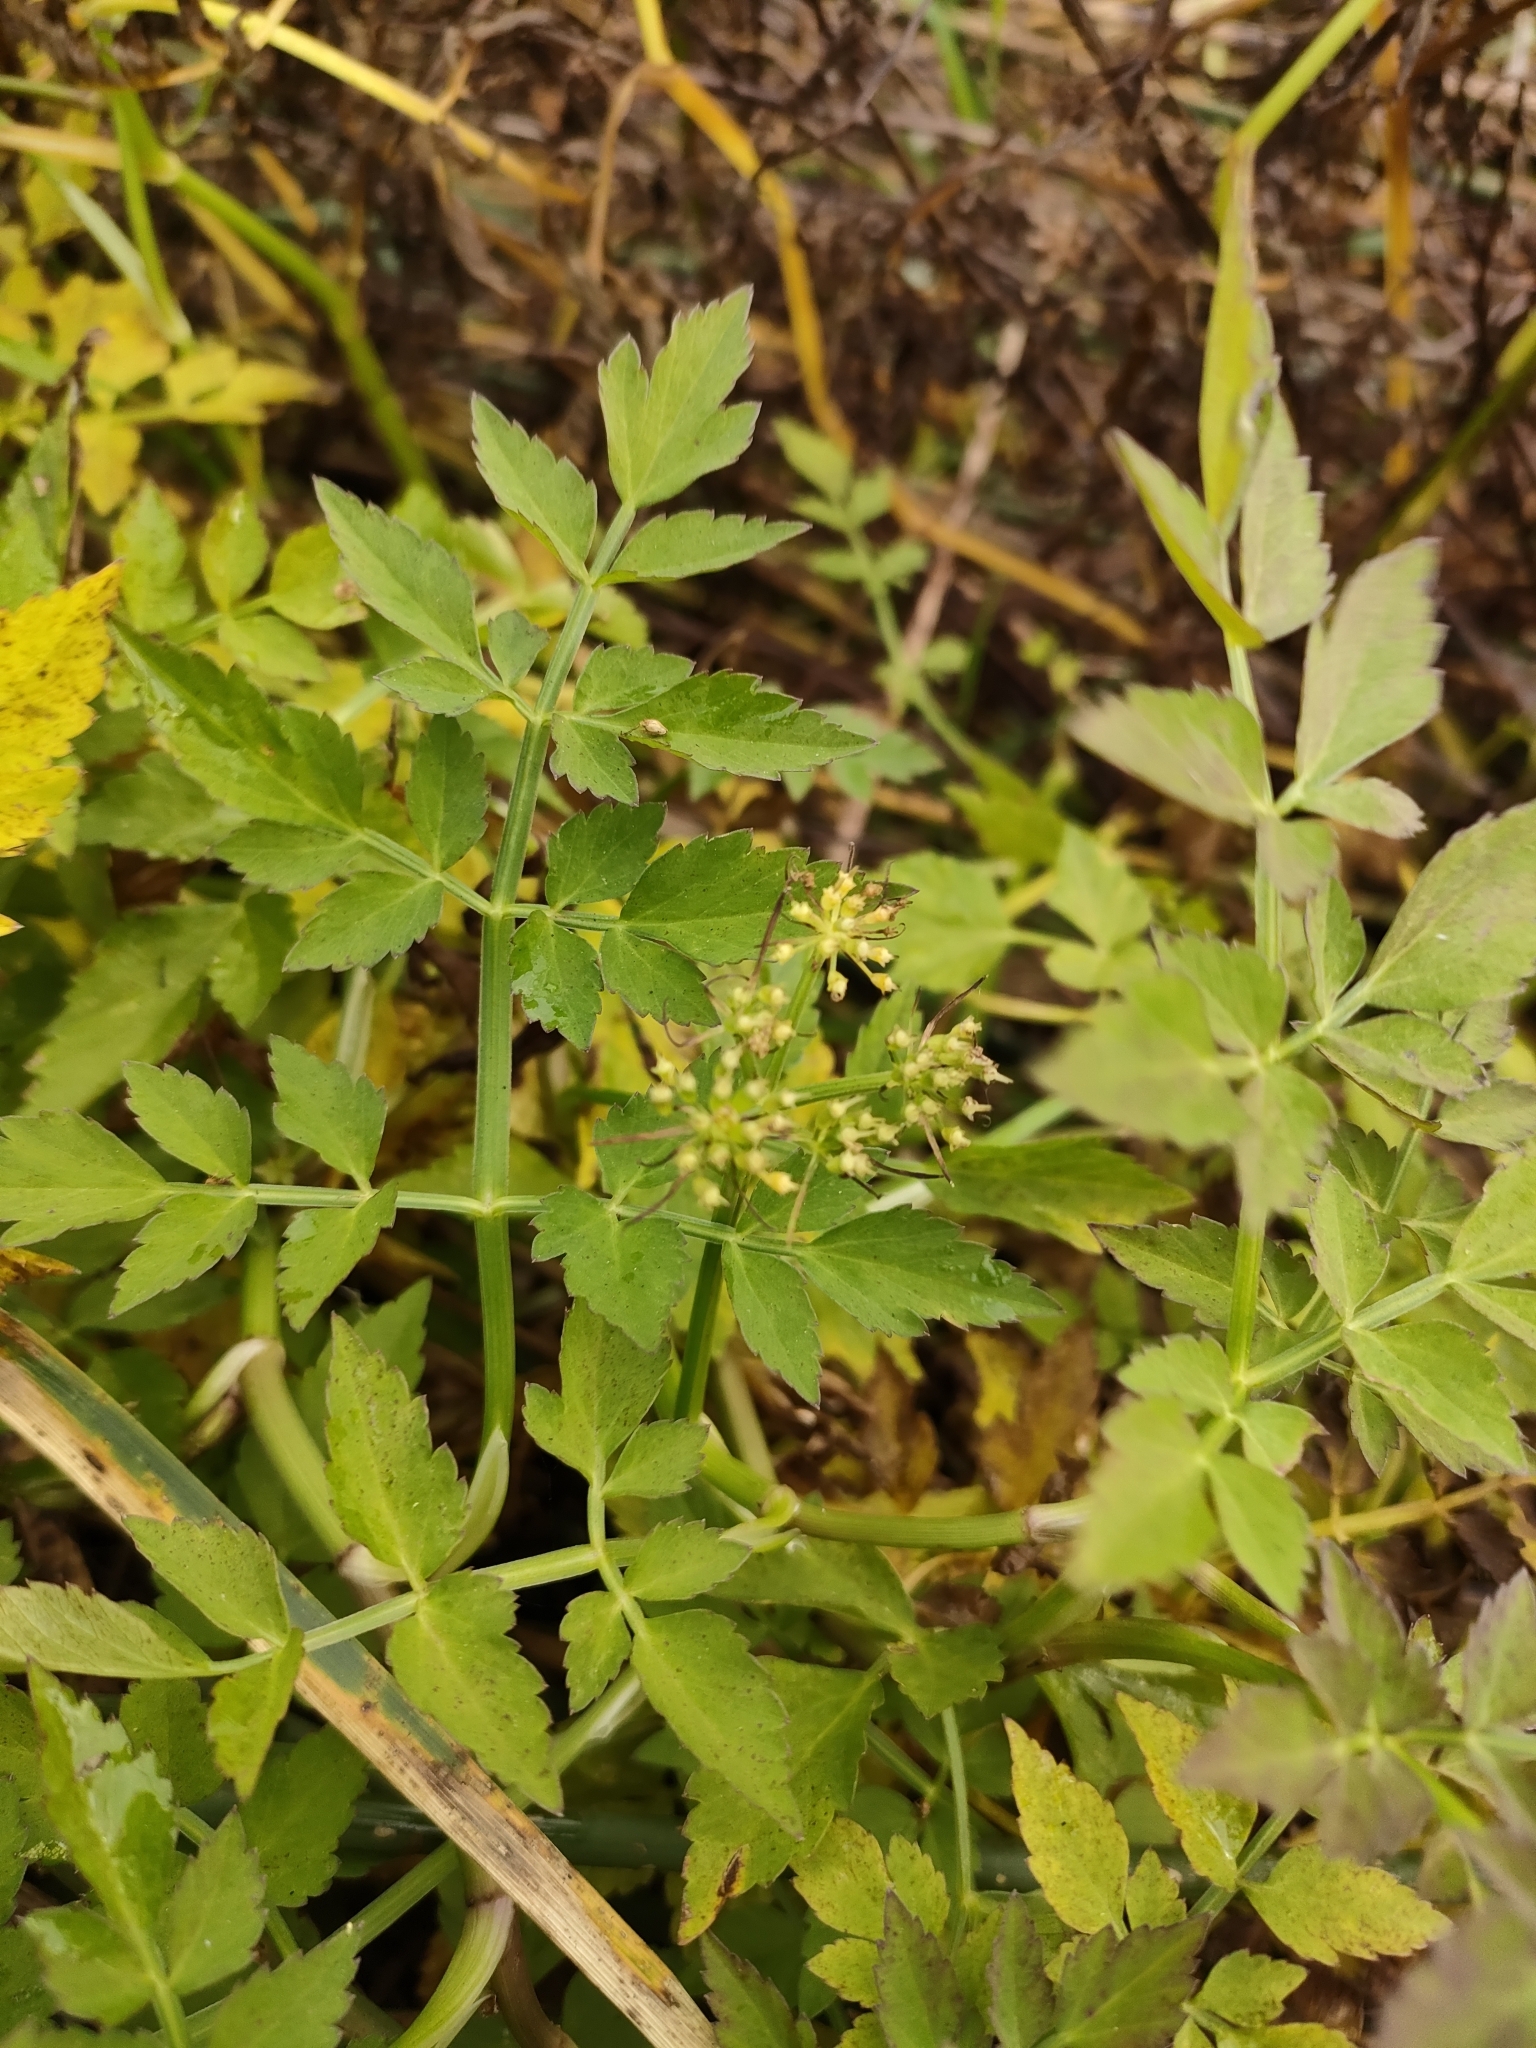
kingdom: Plantae
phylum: Tracheophyta
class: Magnoliopsida
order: Apiales
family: Apiaceae
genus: Oenanthe
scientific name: Oenanthe javanica
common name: Java water-dropwort
